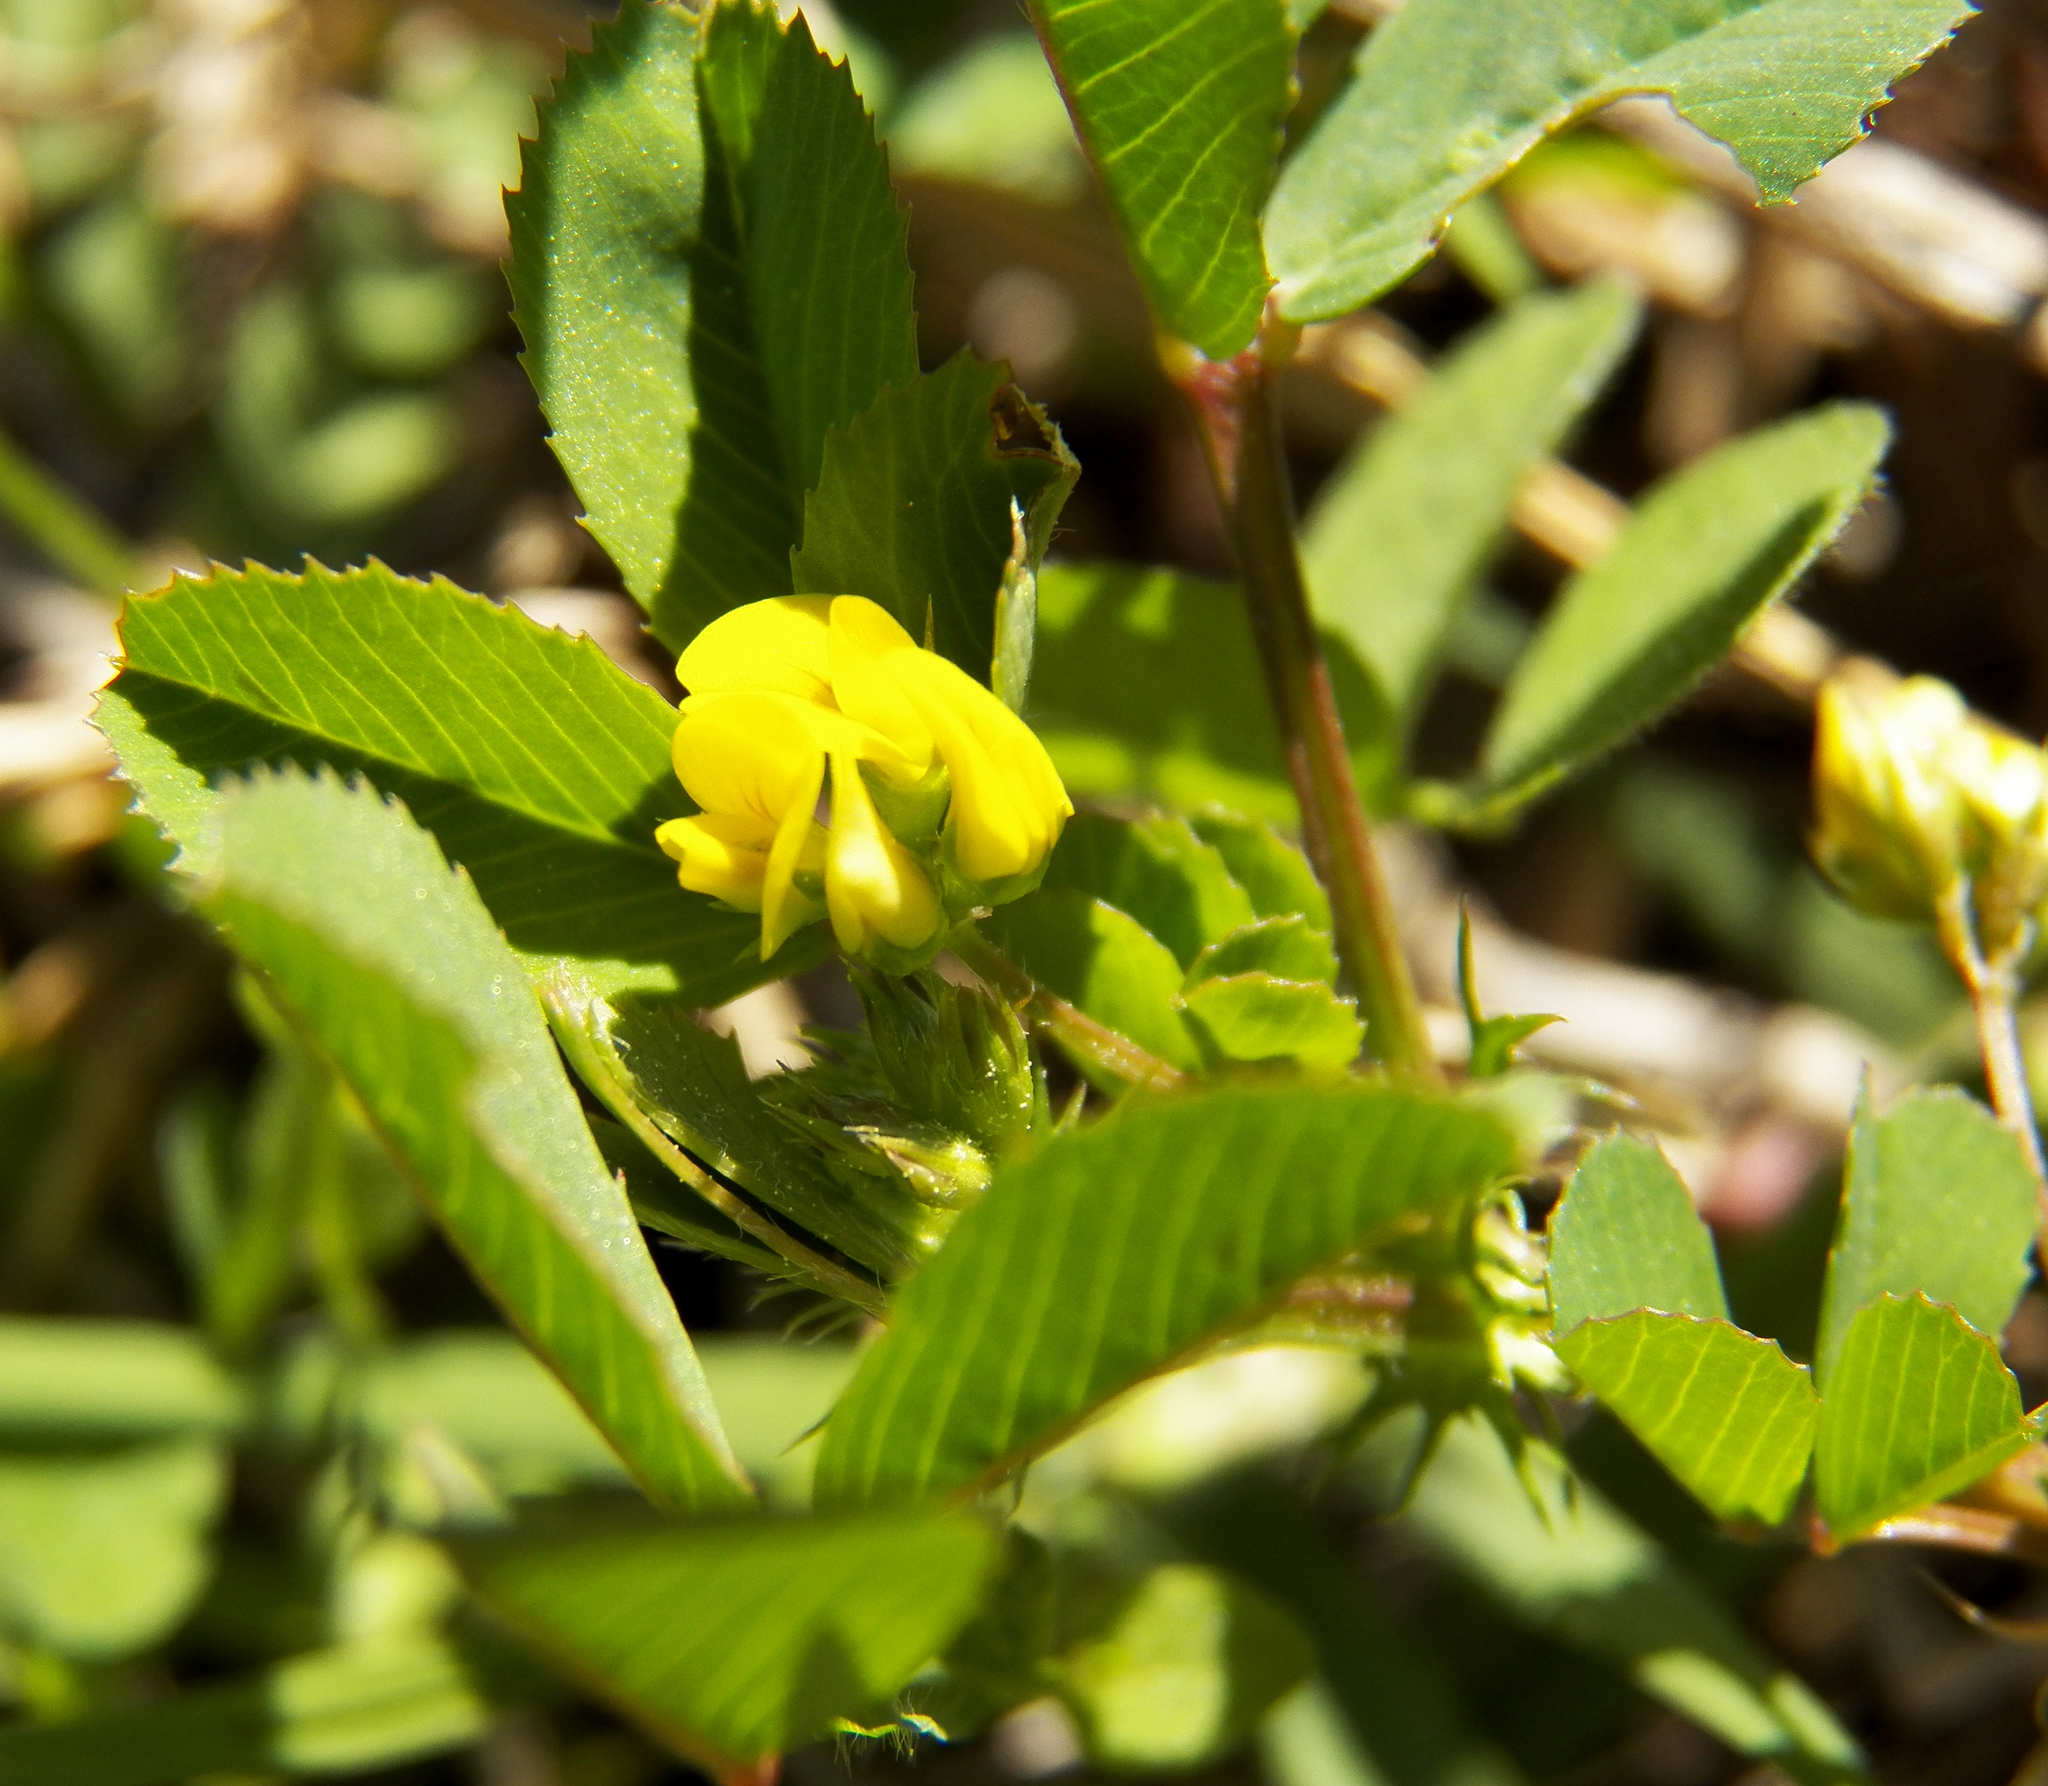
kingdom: Plantae
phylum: Tracheophyta
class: Magnoliopsida
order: Fabales
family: Fabaceae
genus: Medicago
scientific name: Medicago polymorpha
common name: Burclover
